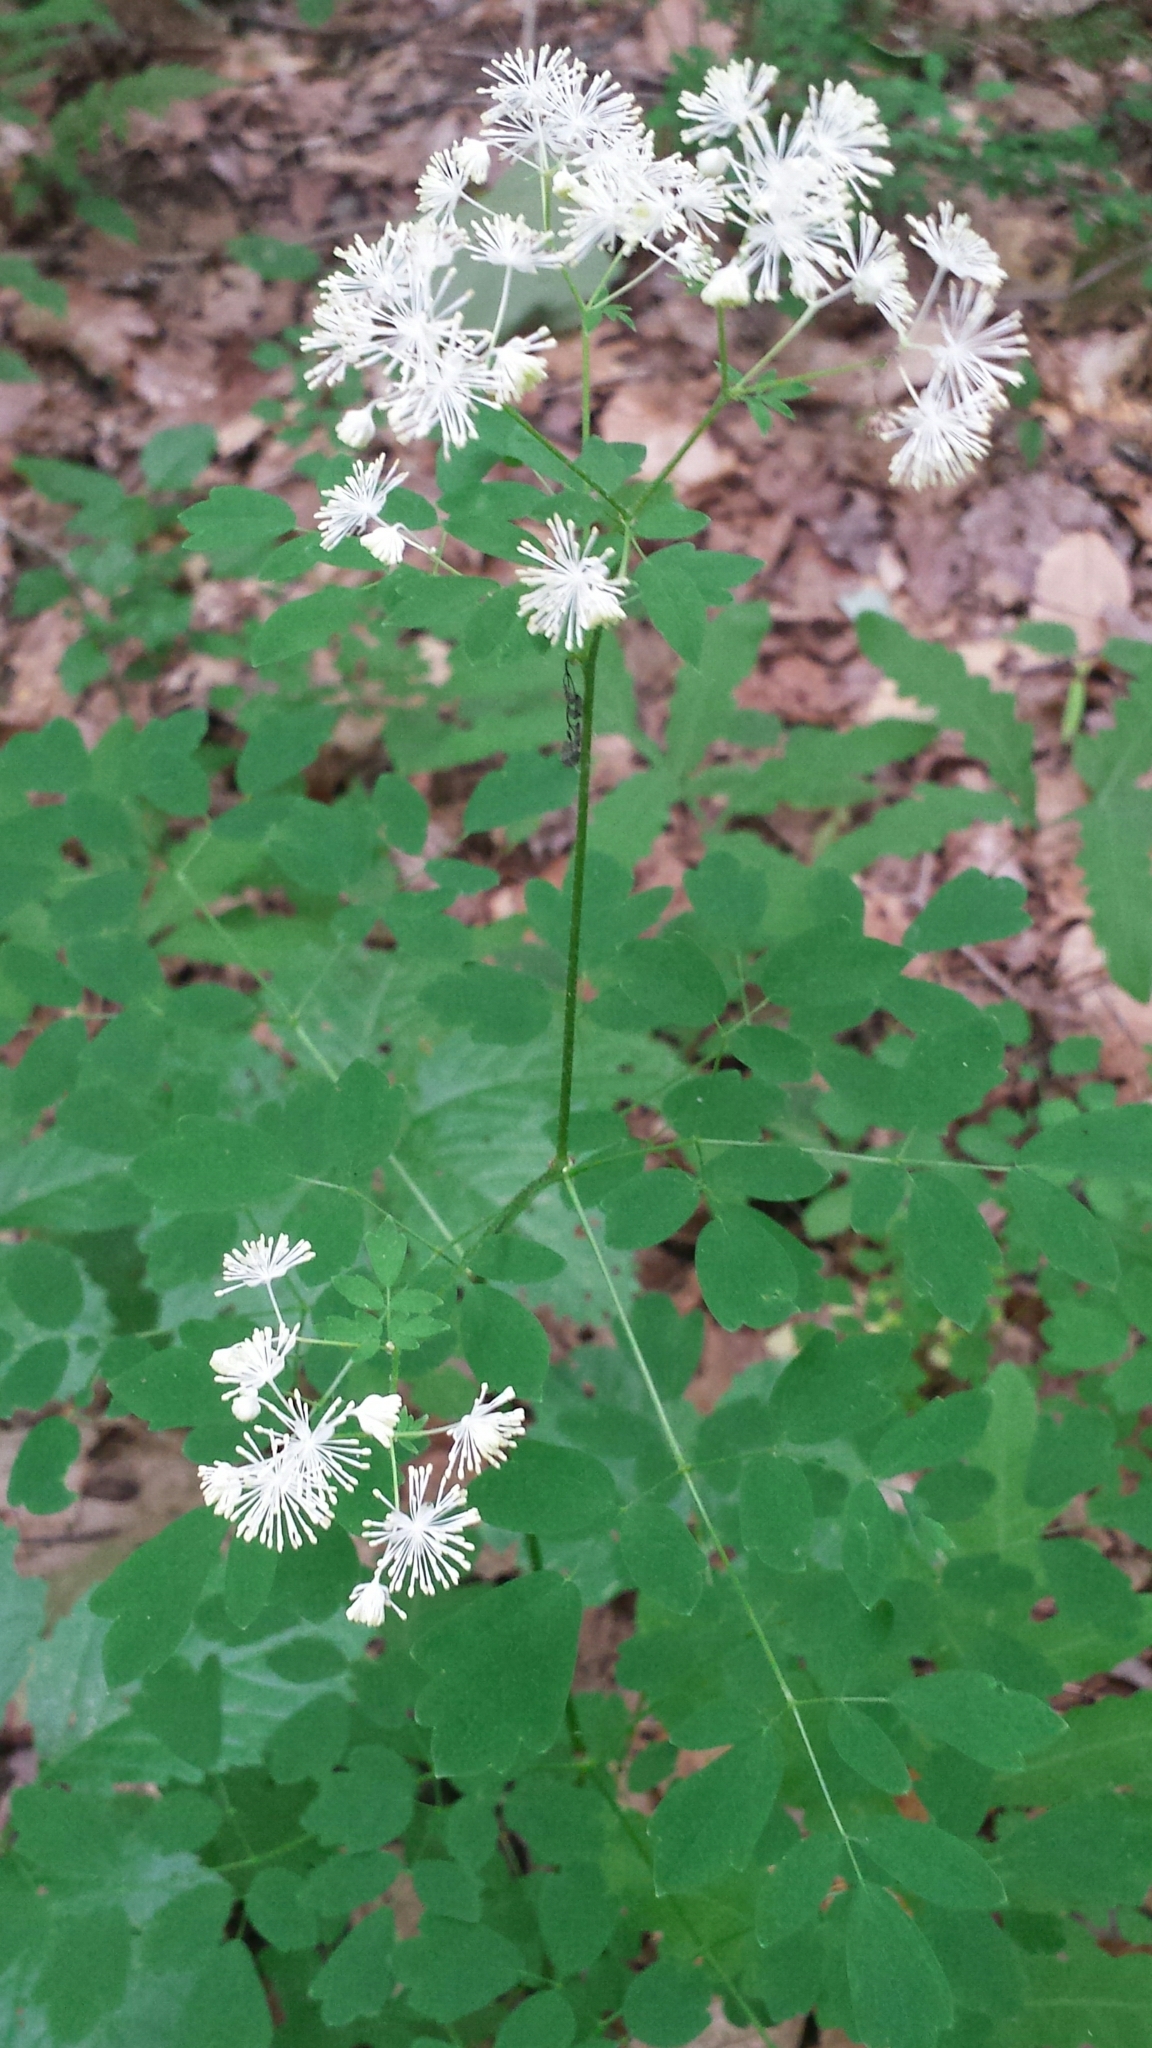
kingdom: Plantae
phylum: Tracheophyta
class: Magnoliopsida
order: Ranunculales
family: Ranunculaceae
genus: Thalictrum
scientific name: Thalictrum pubescens
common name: King-of-the-meadow
